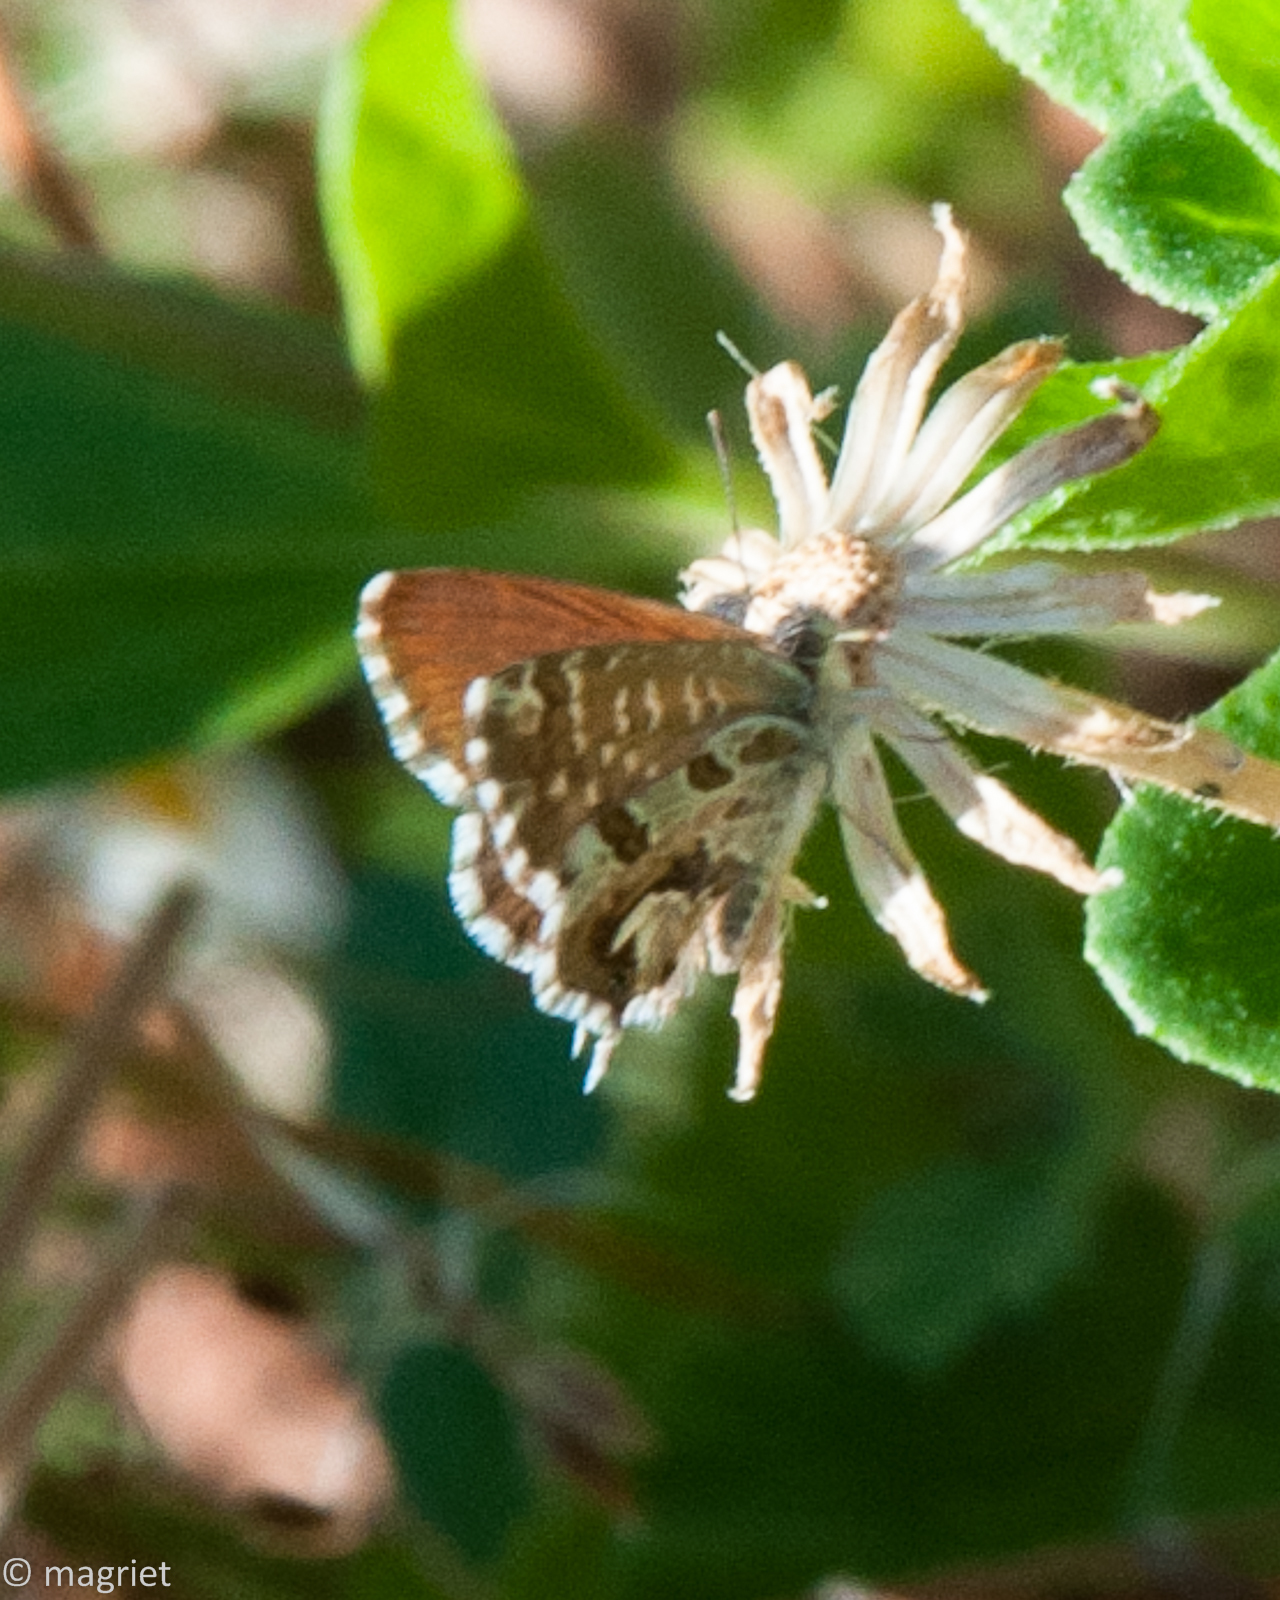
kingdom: Animalia
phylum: Arthropoda
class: Insecta
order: Lepidoptera
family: Lycaenidae
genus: Cacyreus
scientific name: Cacyreus marshalli
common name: Geranium bronze
